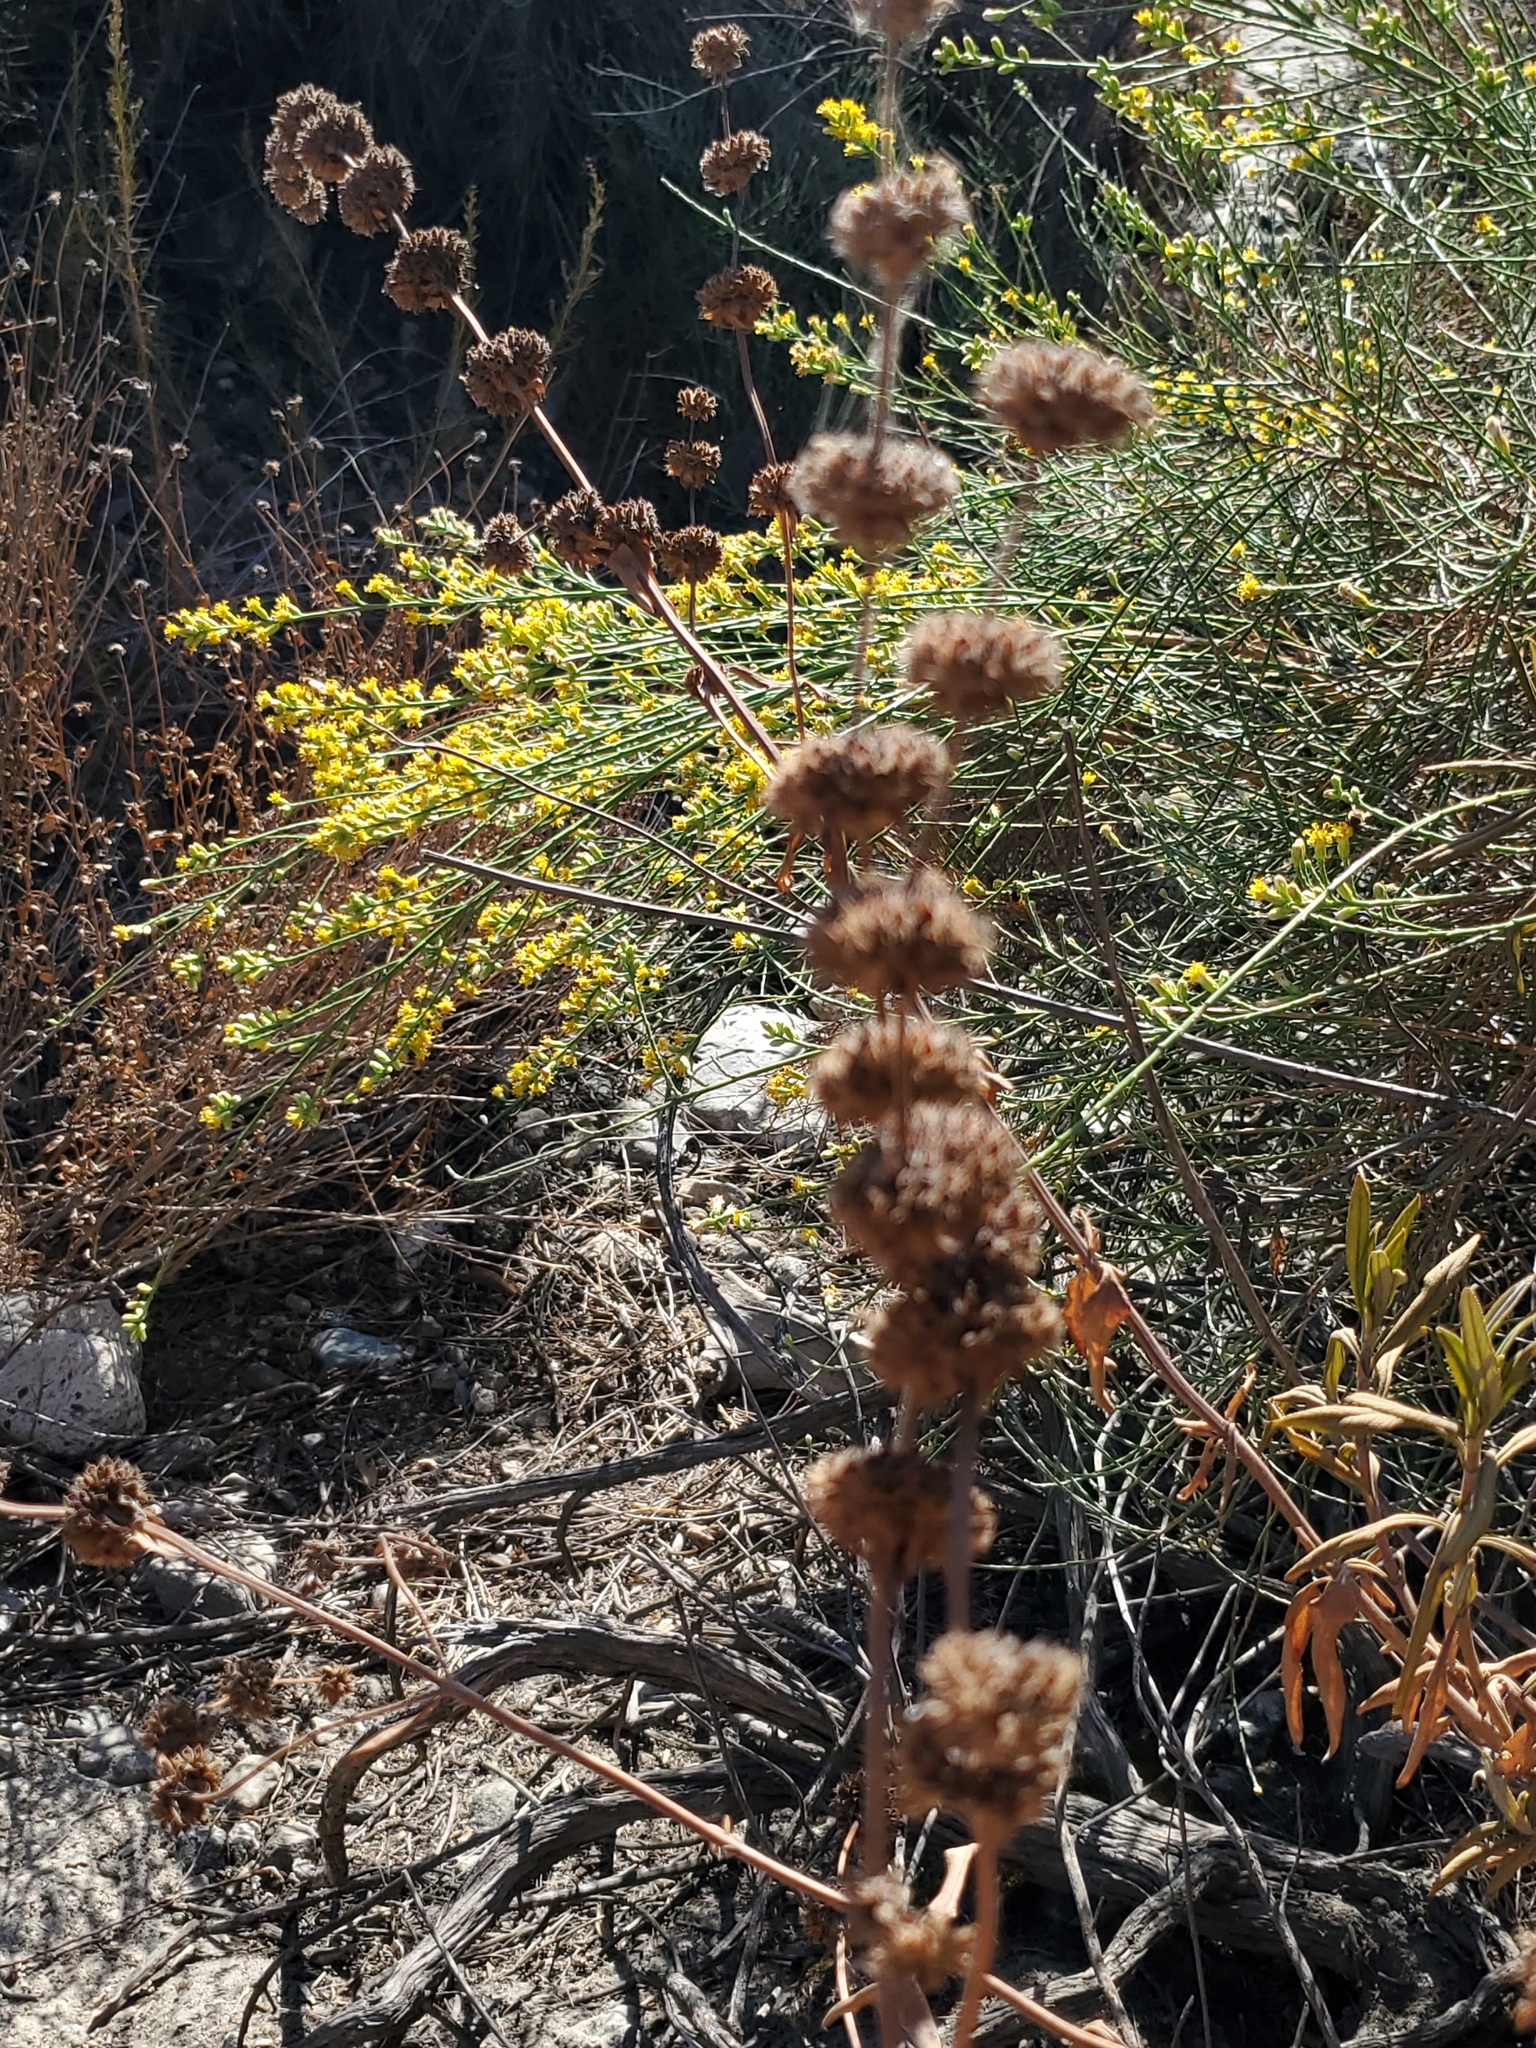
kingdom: Plantae
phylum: Tracheophyta
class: Magnoliopsida
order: Lamiales
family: Lamiaceae
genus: Salvia
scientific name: Salvia mellifera
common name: Black sage
